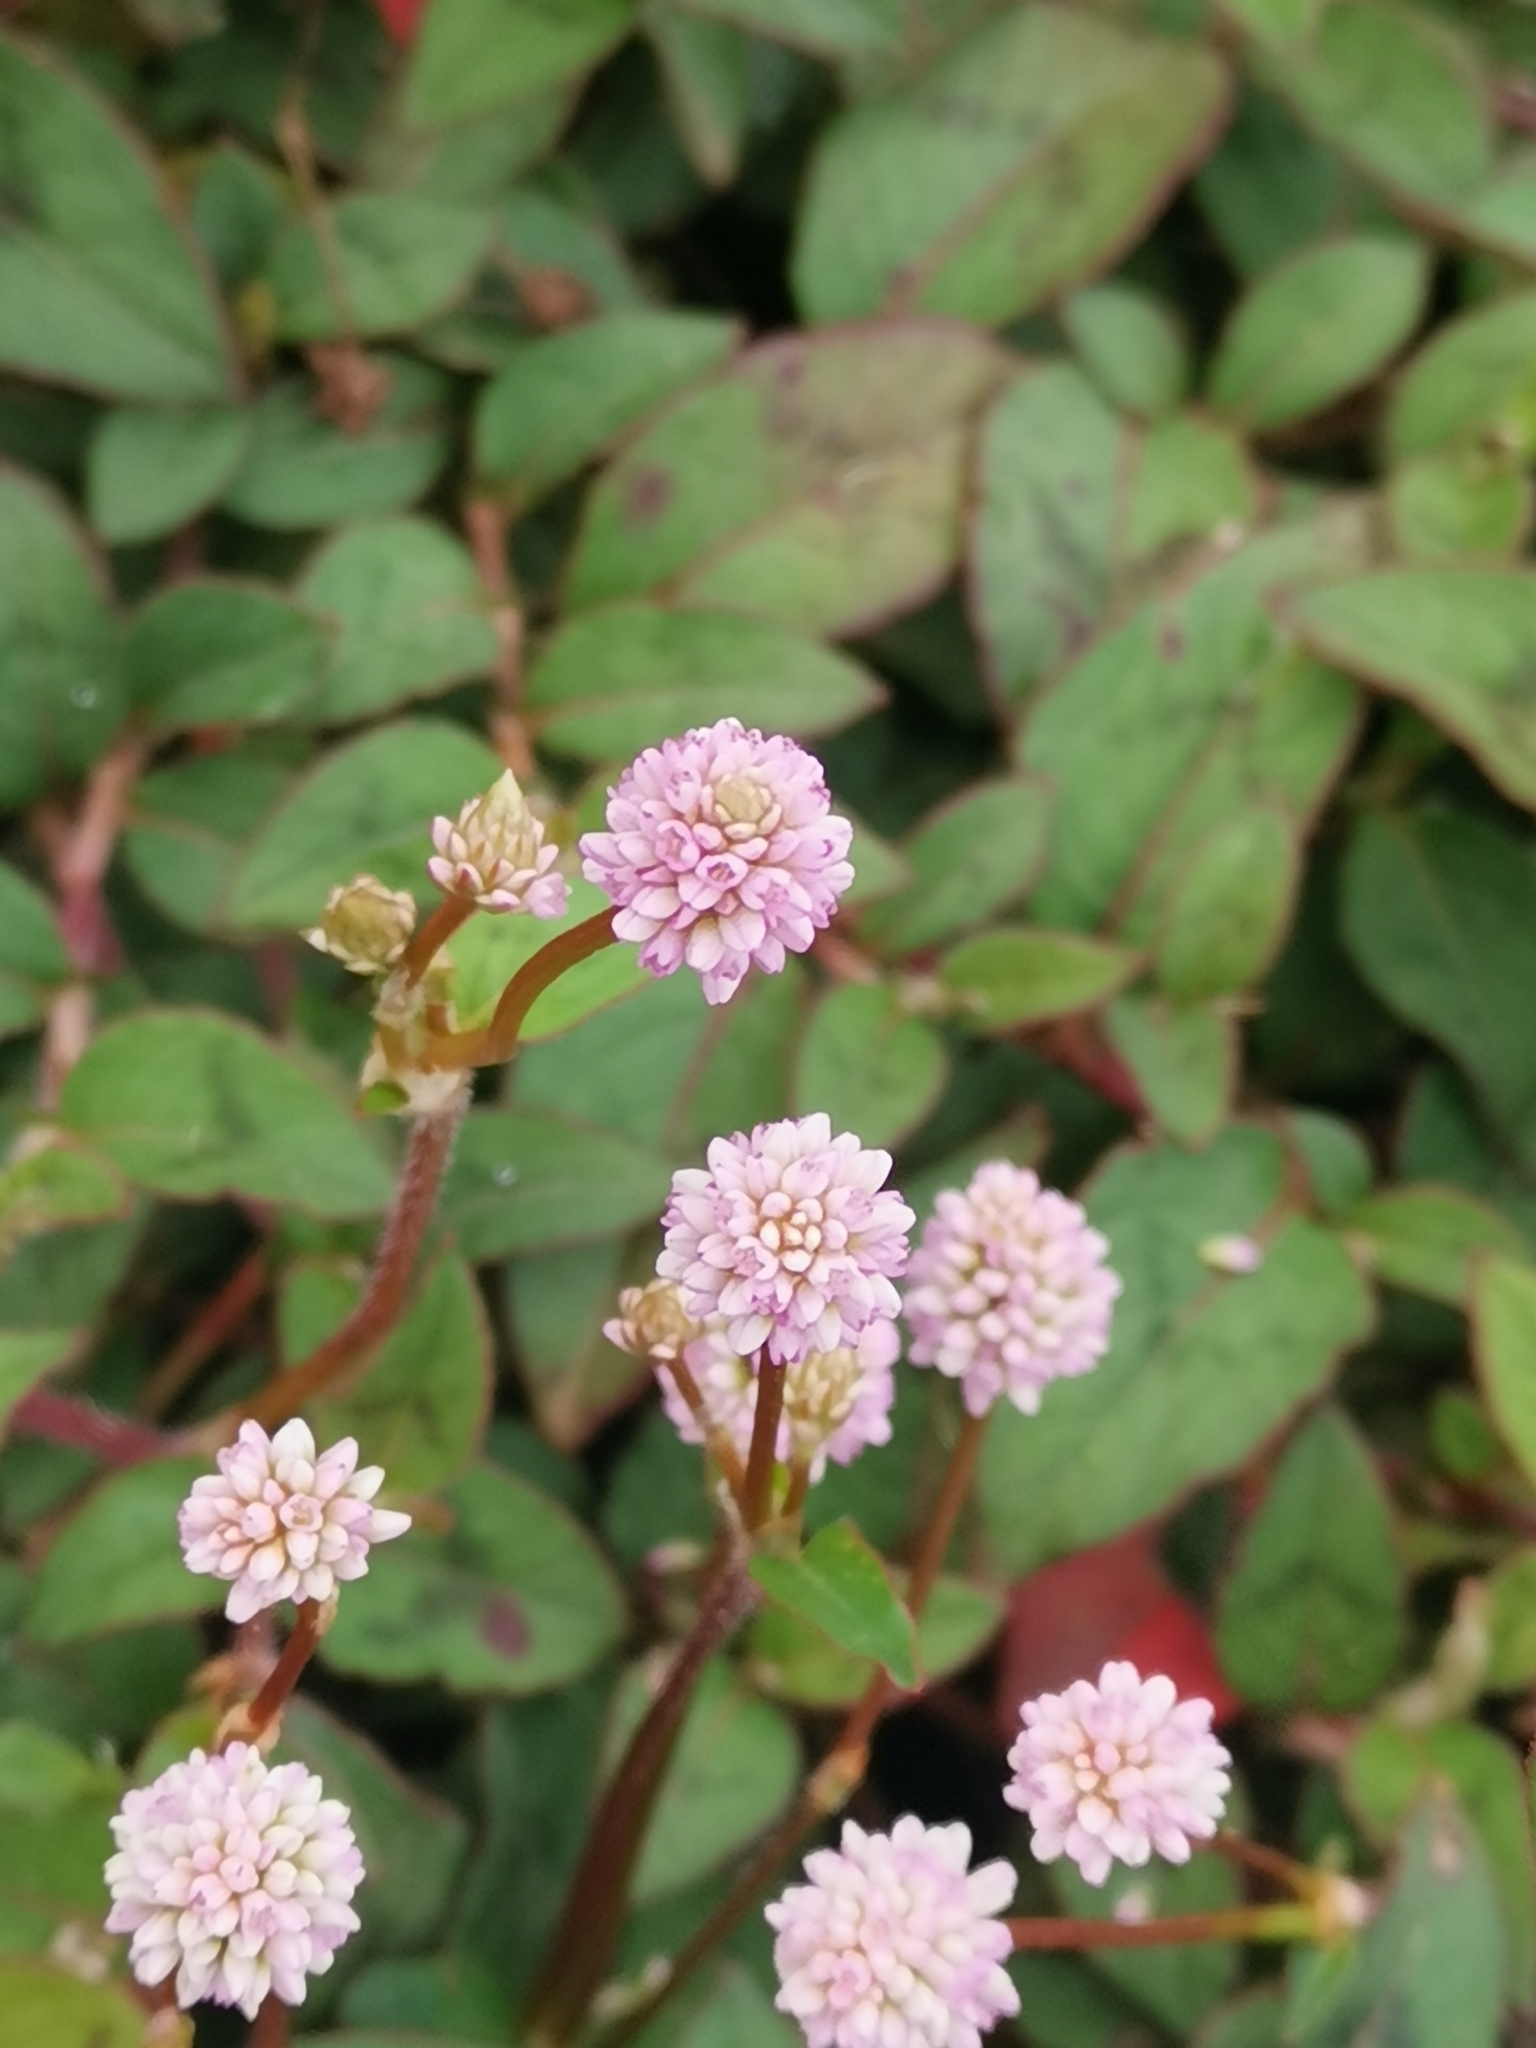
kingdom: Plantae
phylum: Tracheophyta
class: Magnoliopsida
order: Caryophyllales
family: Polygonaceae
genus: Persicaria
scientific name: Persicaria capitata
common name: Pinkhead smartweed
